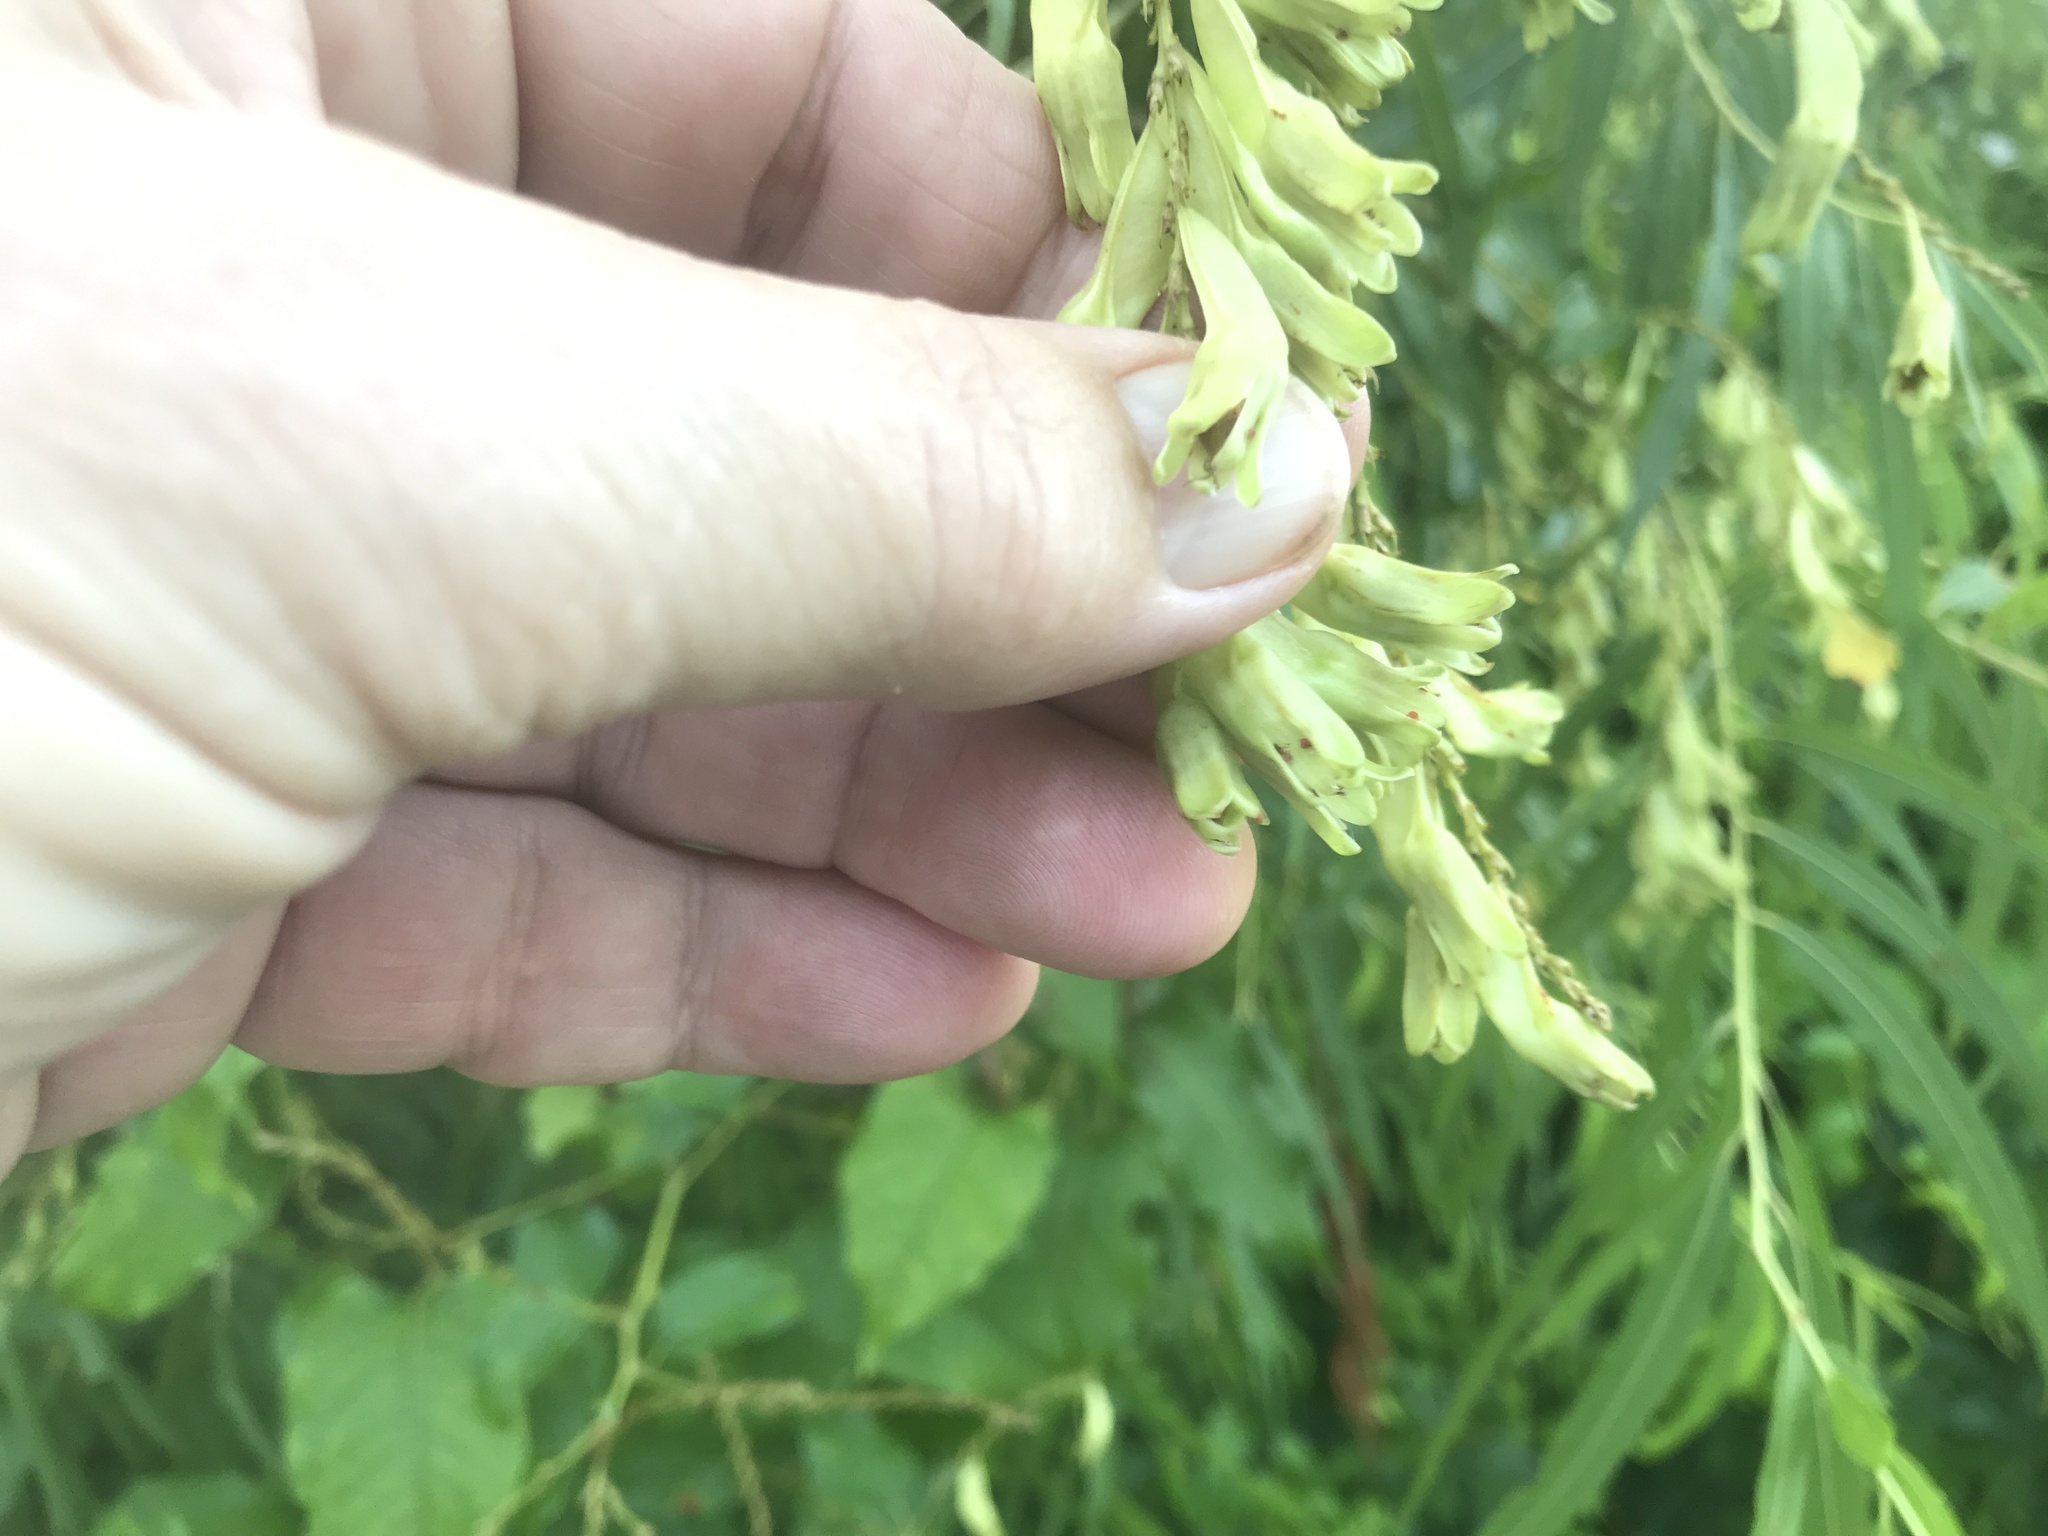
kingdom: Plantae
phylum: Tracheophyta
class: Magnoliopsida
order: Caryophyllales
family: Polygonaceae
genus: Brunnichia
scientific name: Brunnichia ovata
